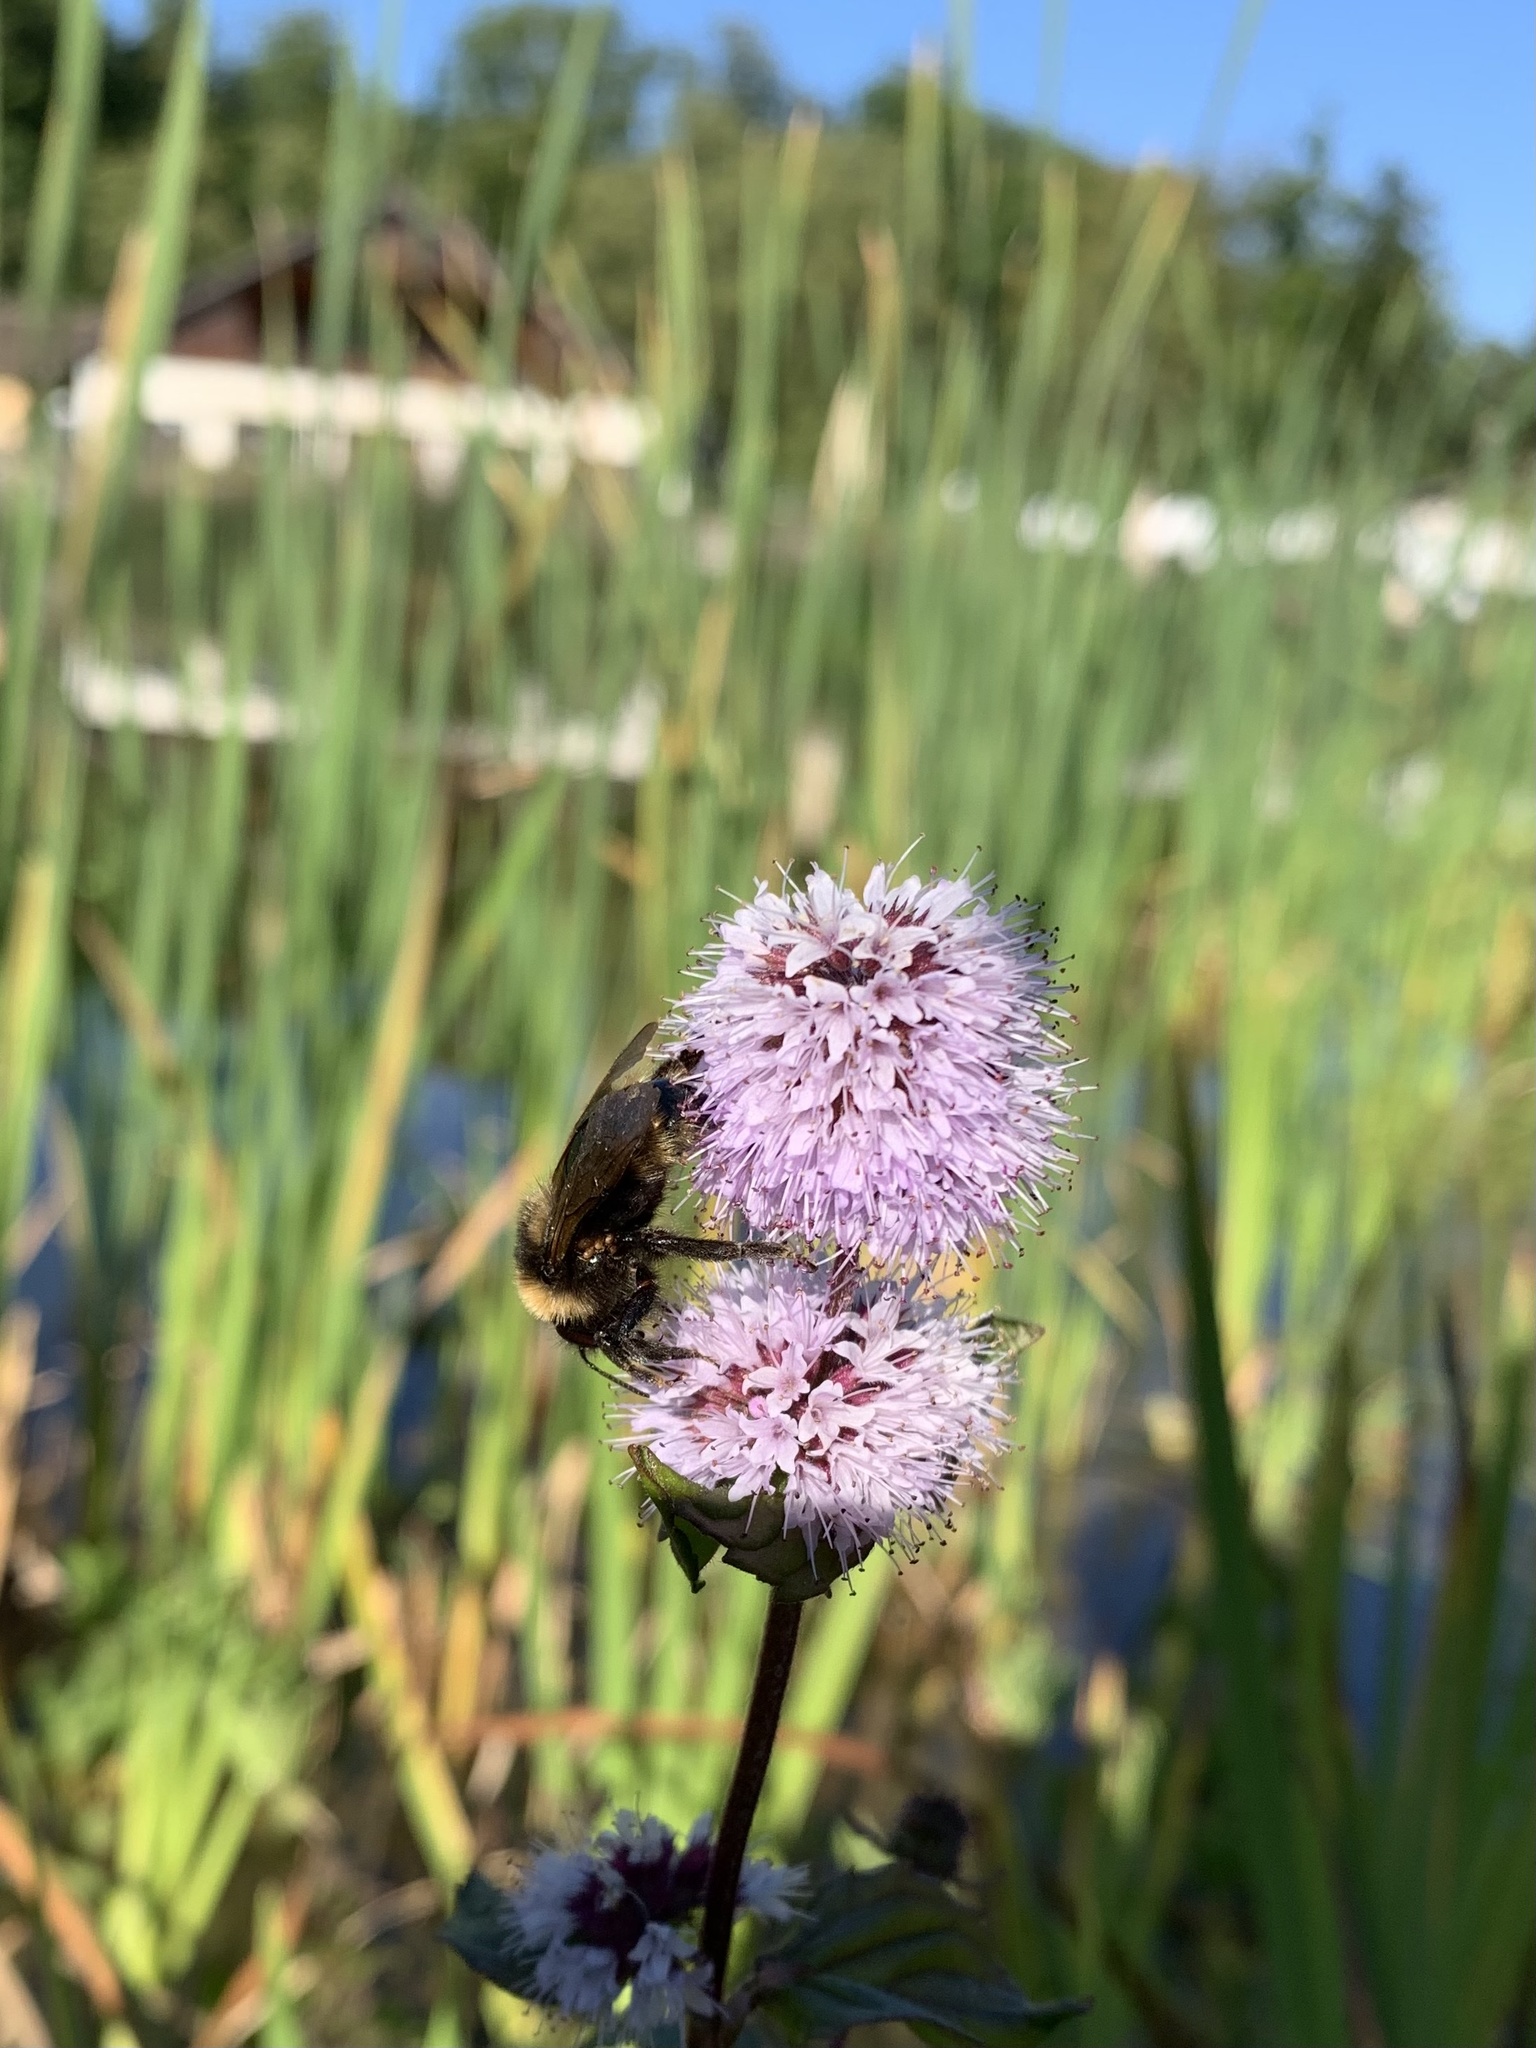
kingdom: Plantae
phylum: Tracheophyta
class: Magnoliopsida
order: Lamiales
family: Lamiaceae
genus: Mentha
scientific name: Mentha aquatica
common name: Water mint
